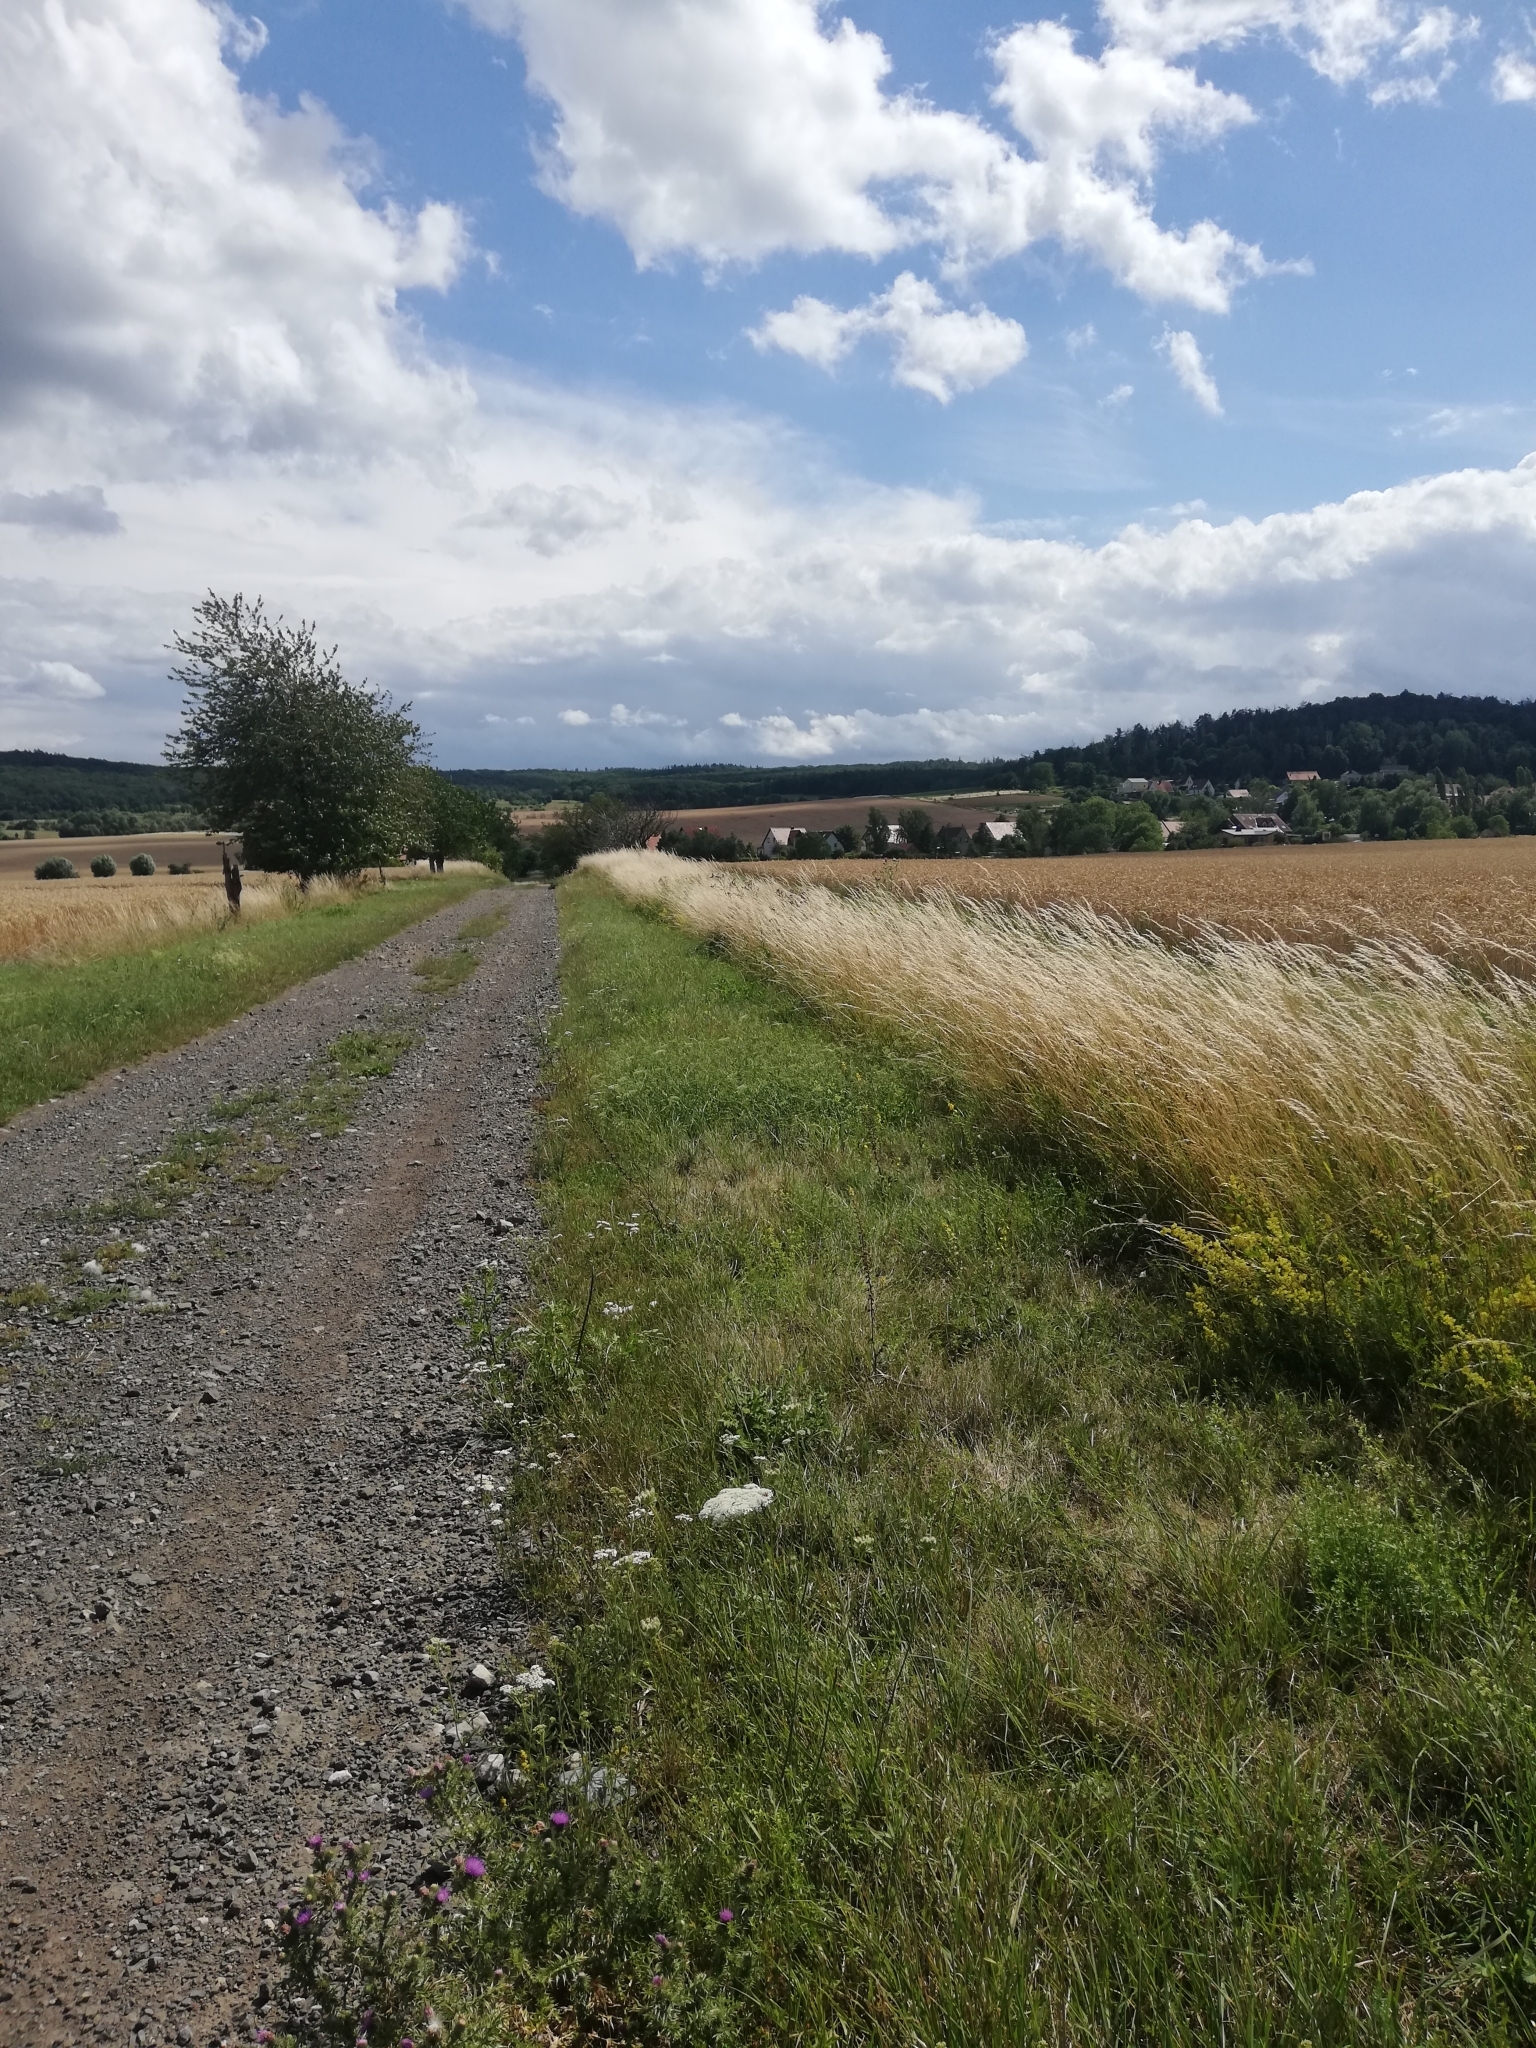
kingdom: Animalia
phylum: Arthropoda
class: Insecta
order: Lepidoptera
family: Pieridae
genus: Pieris
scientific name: Pieris brassicae
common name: Large white
